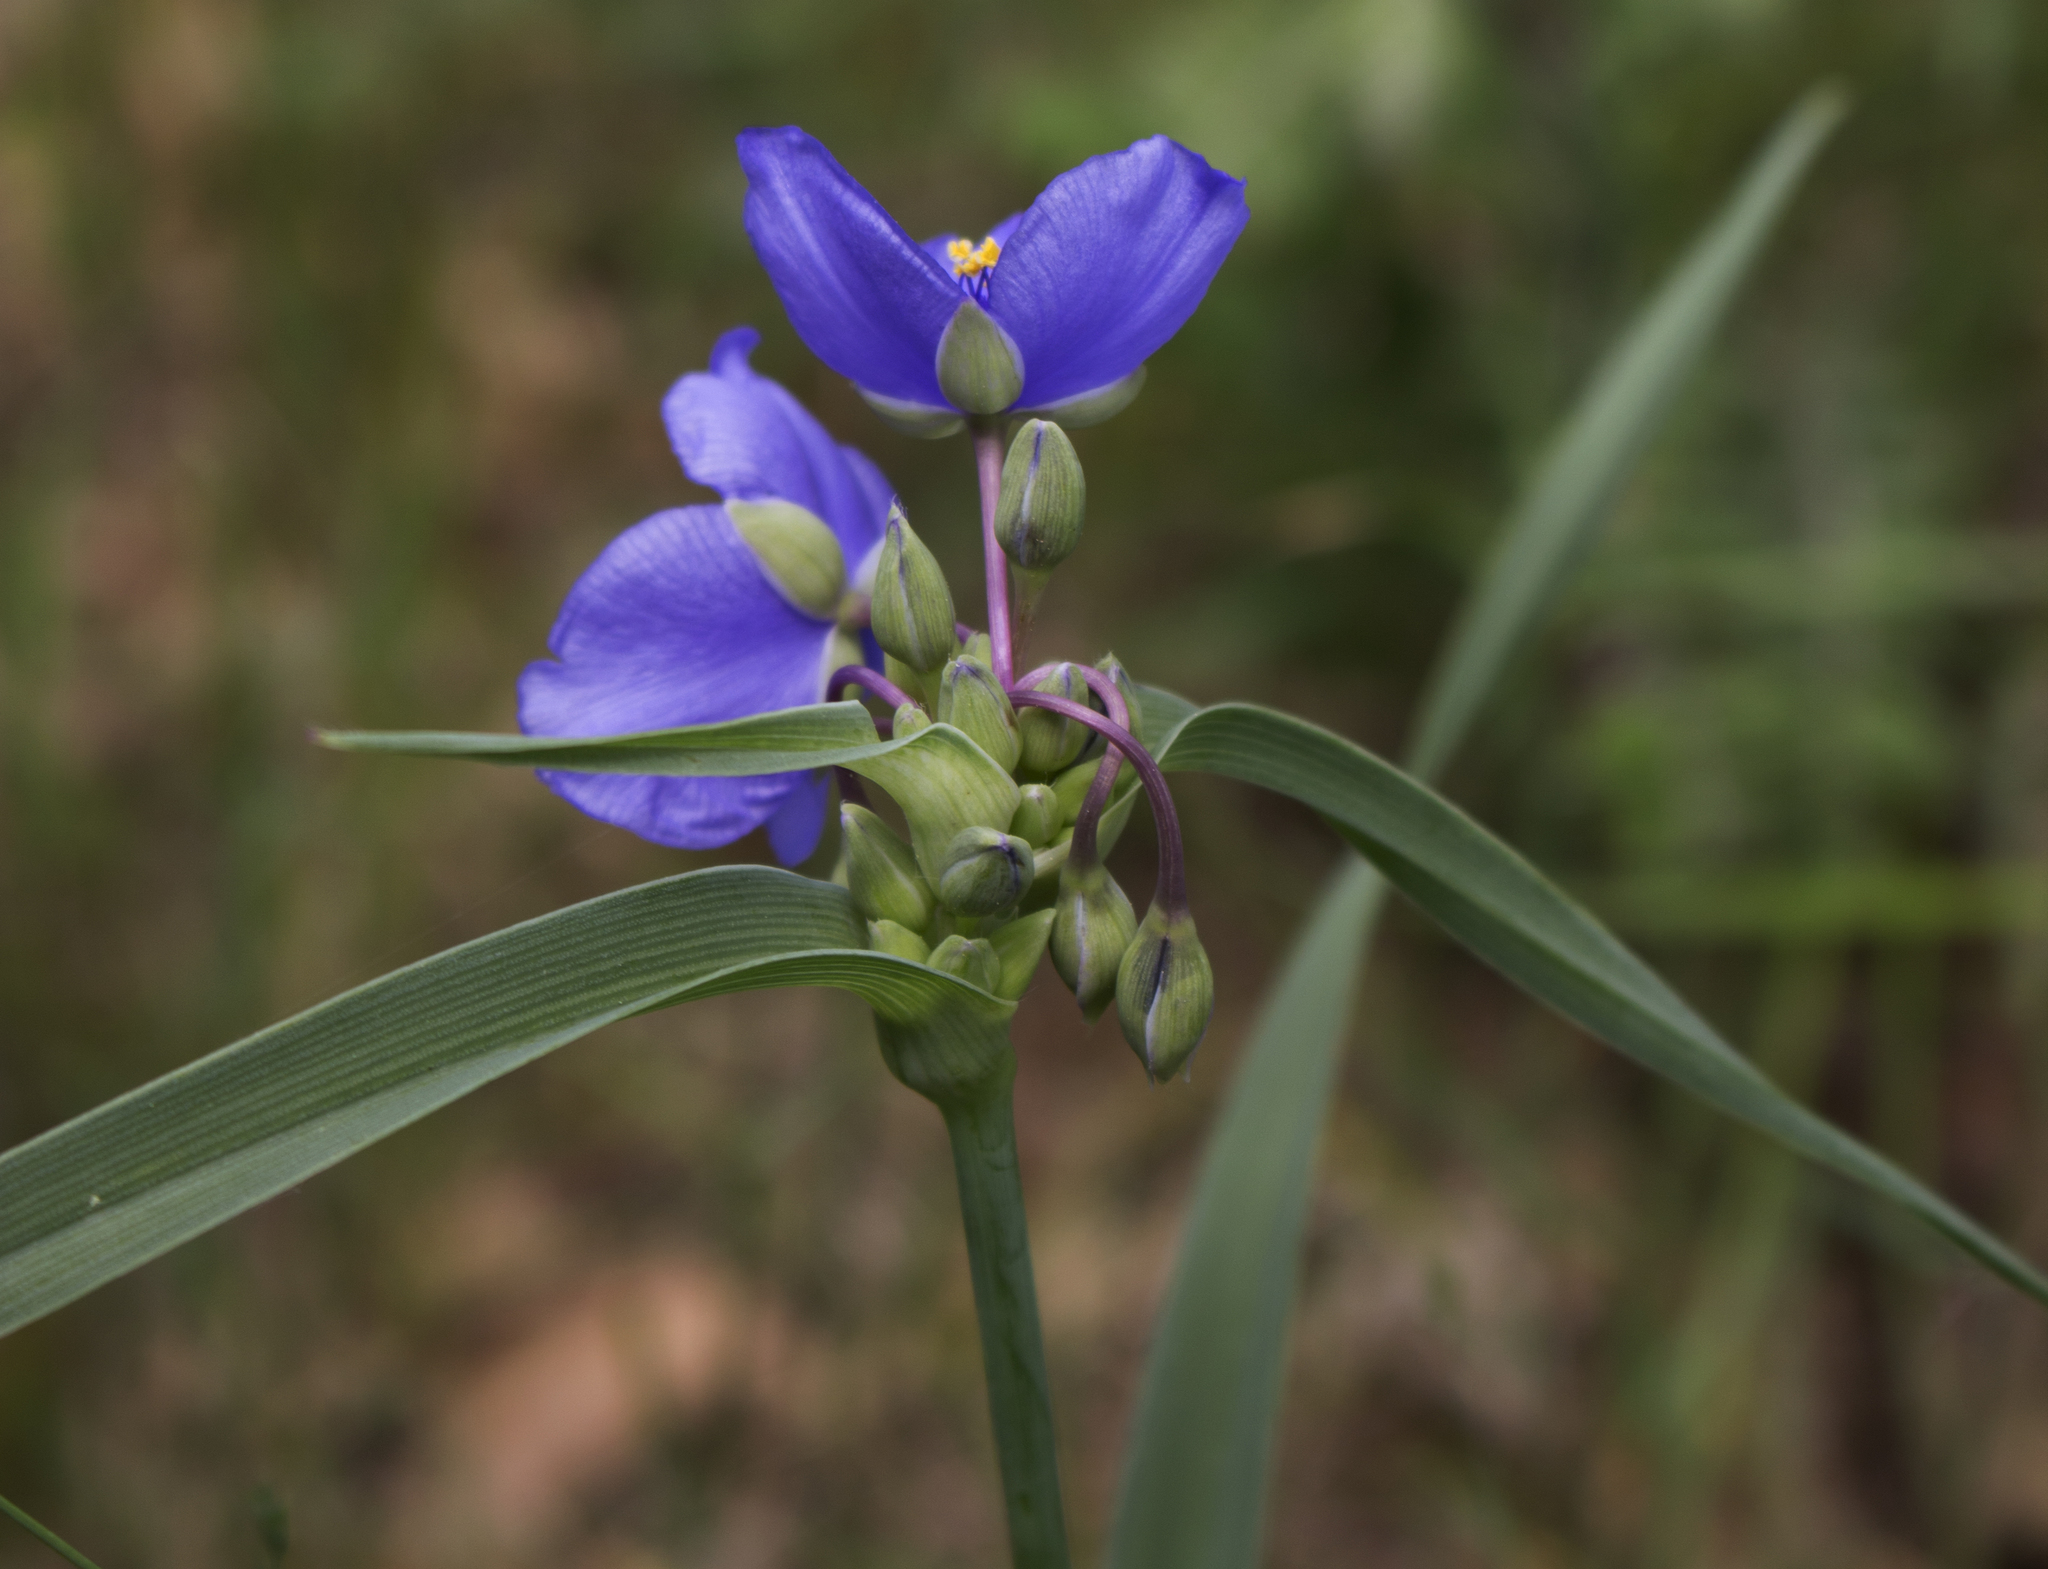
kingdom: Plantae
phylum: Tracheophyta
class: Liliopsida
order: Commelinales
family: Commelinaceae
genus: Tradescantia
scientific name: Tradescantia ohiensis
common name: Ohio spiderwort
